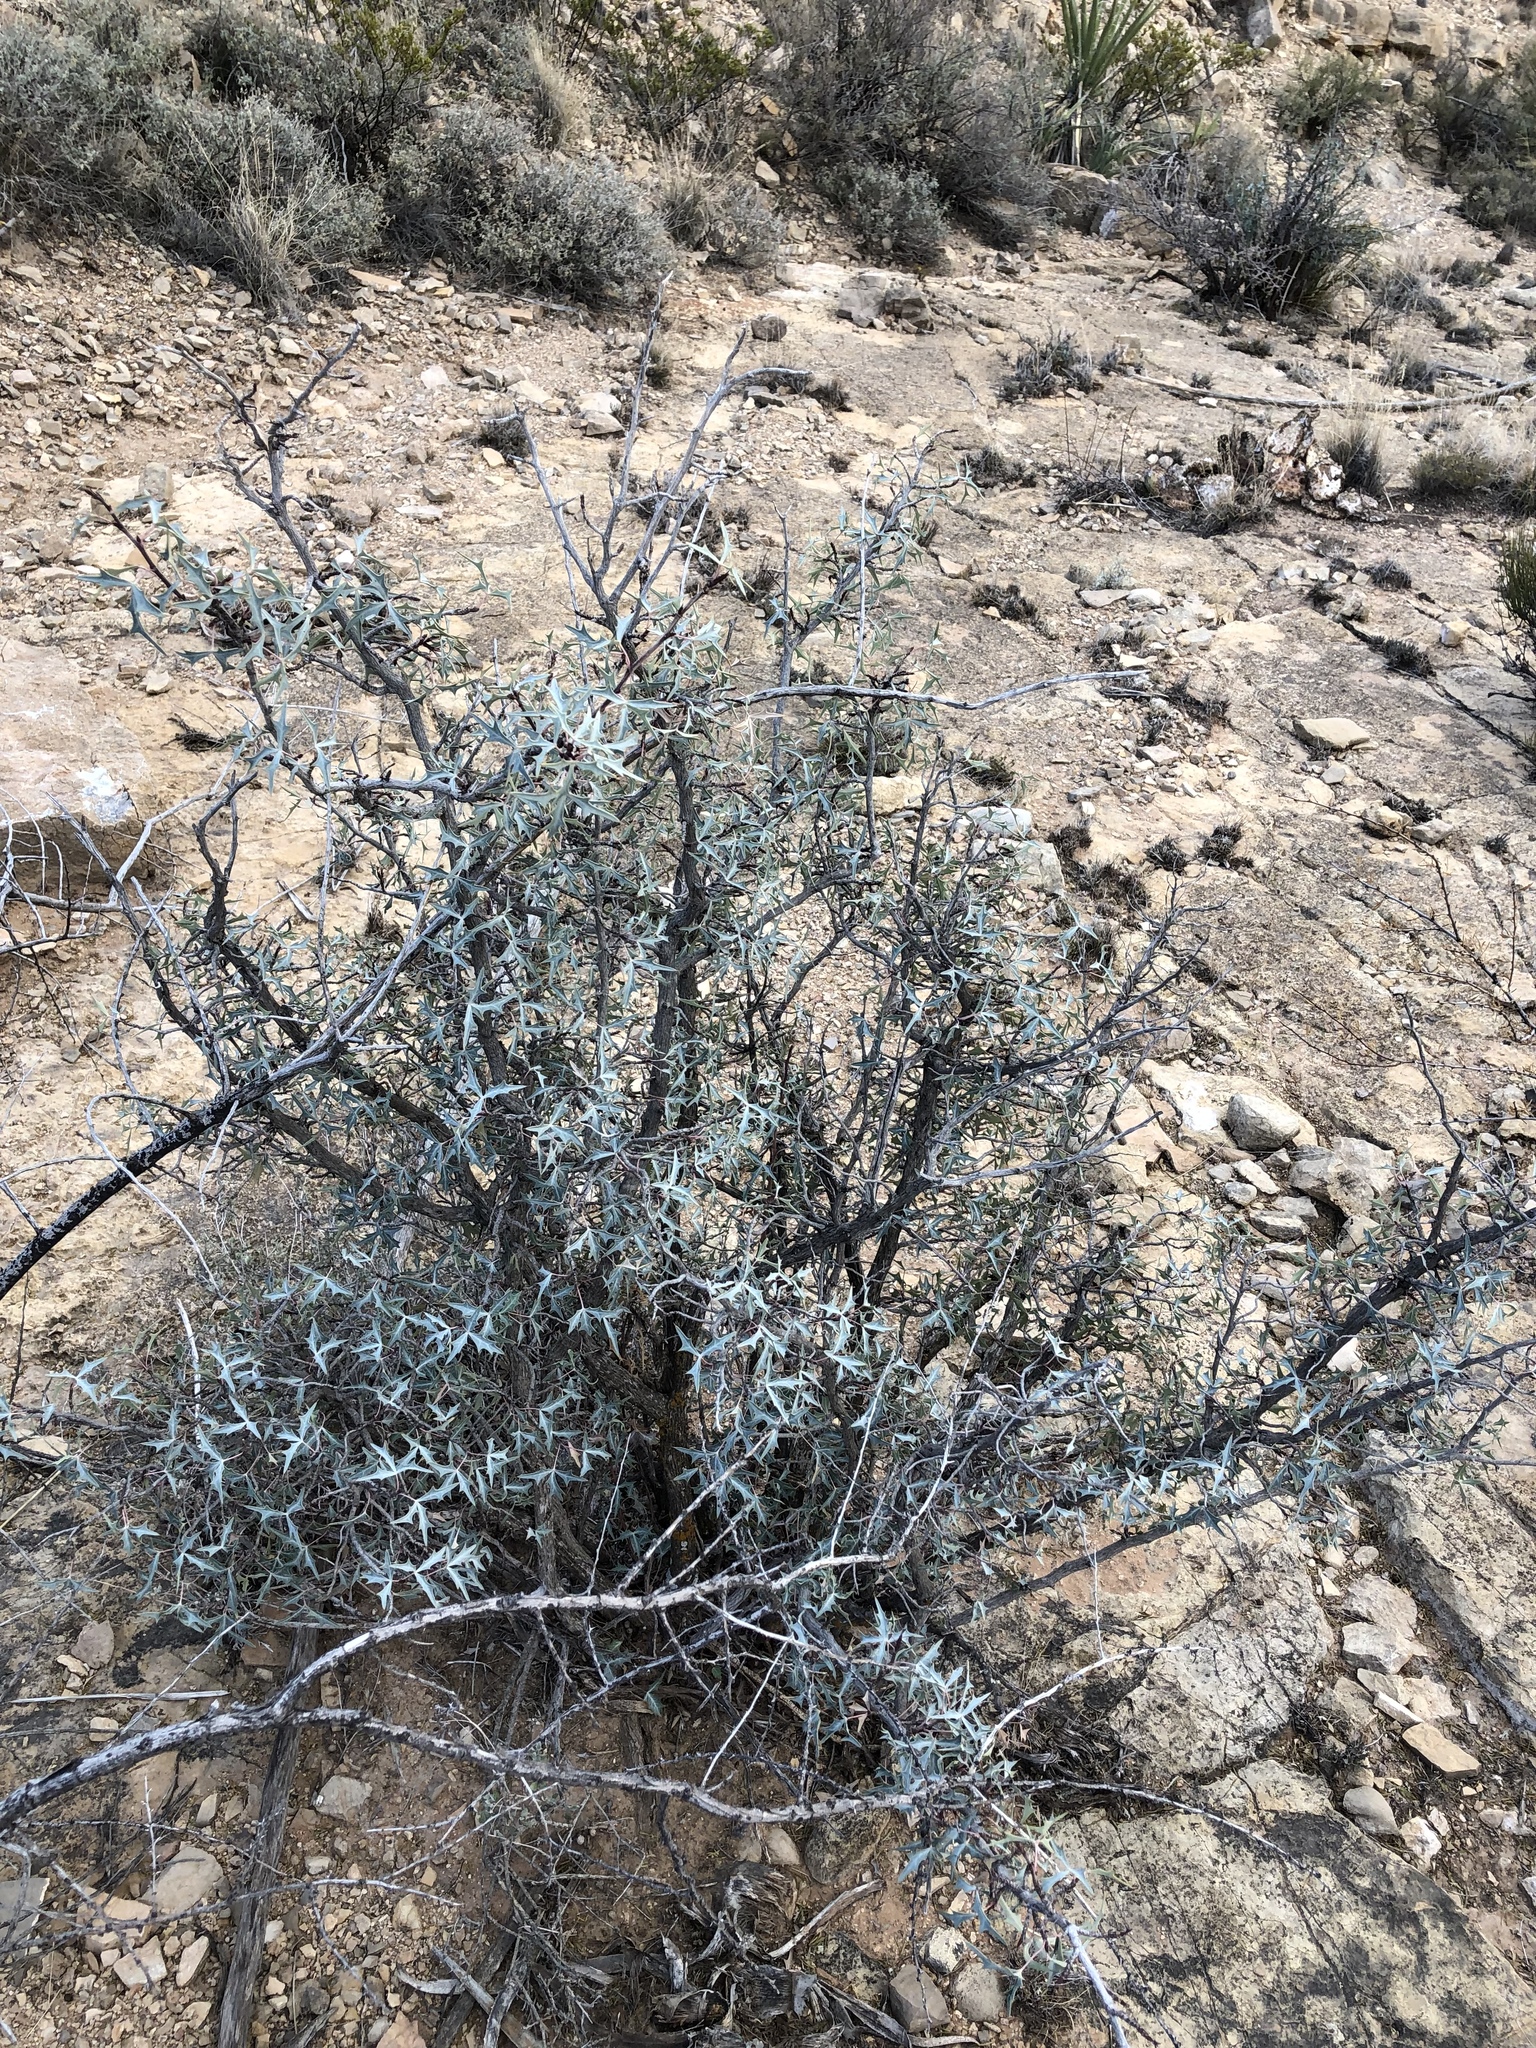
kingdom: Plantae
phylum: Tracheophyta
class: Magnoliopsida
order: Ranunculales
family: Berberidaceae
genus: Alloberberis
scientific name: Alloberberis trifoliolata
